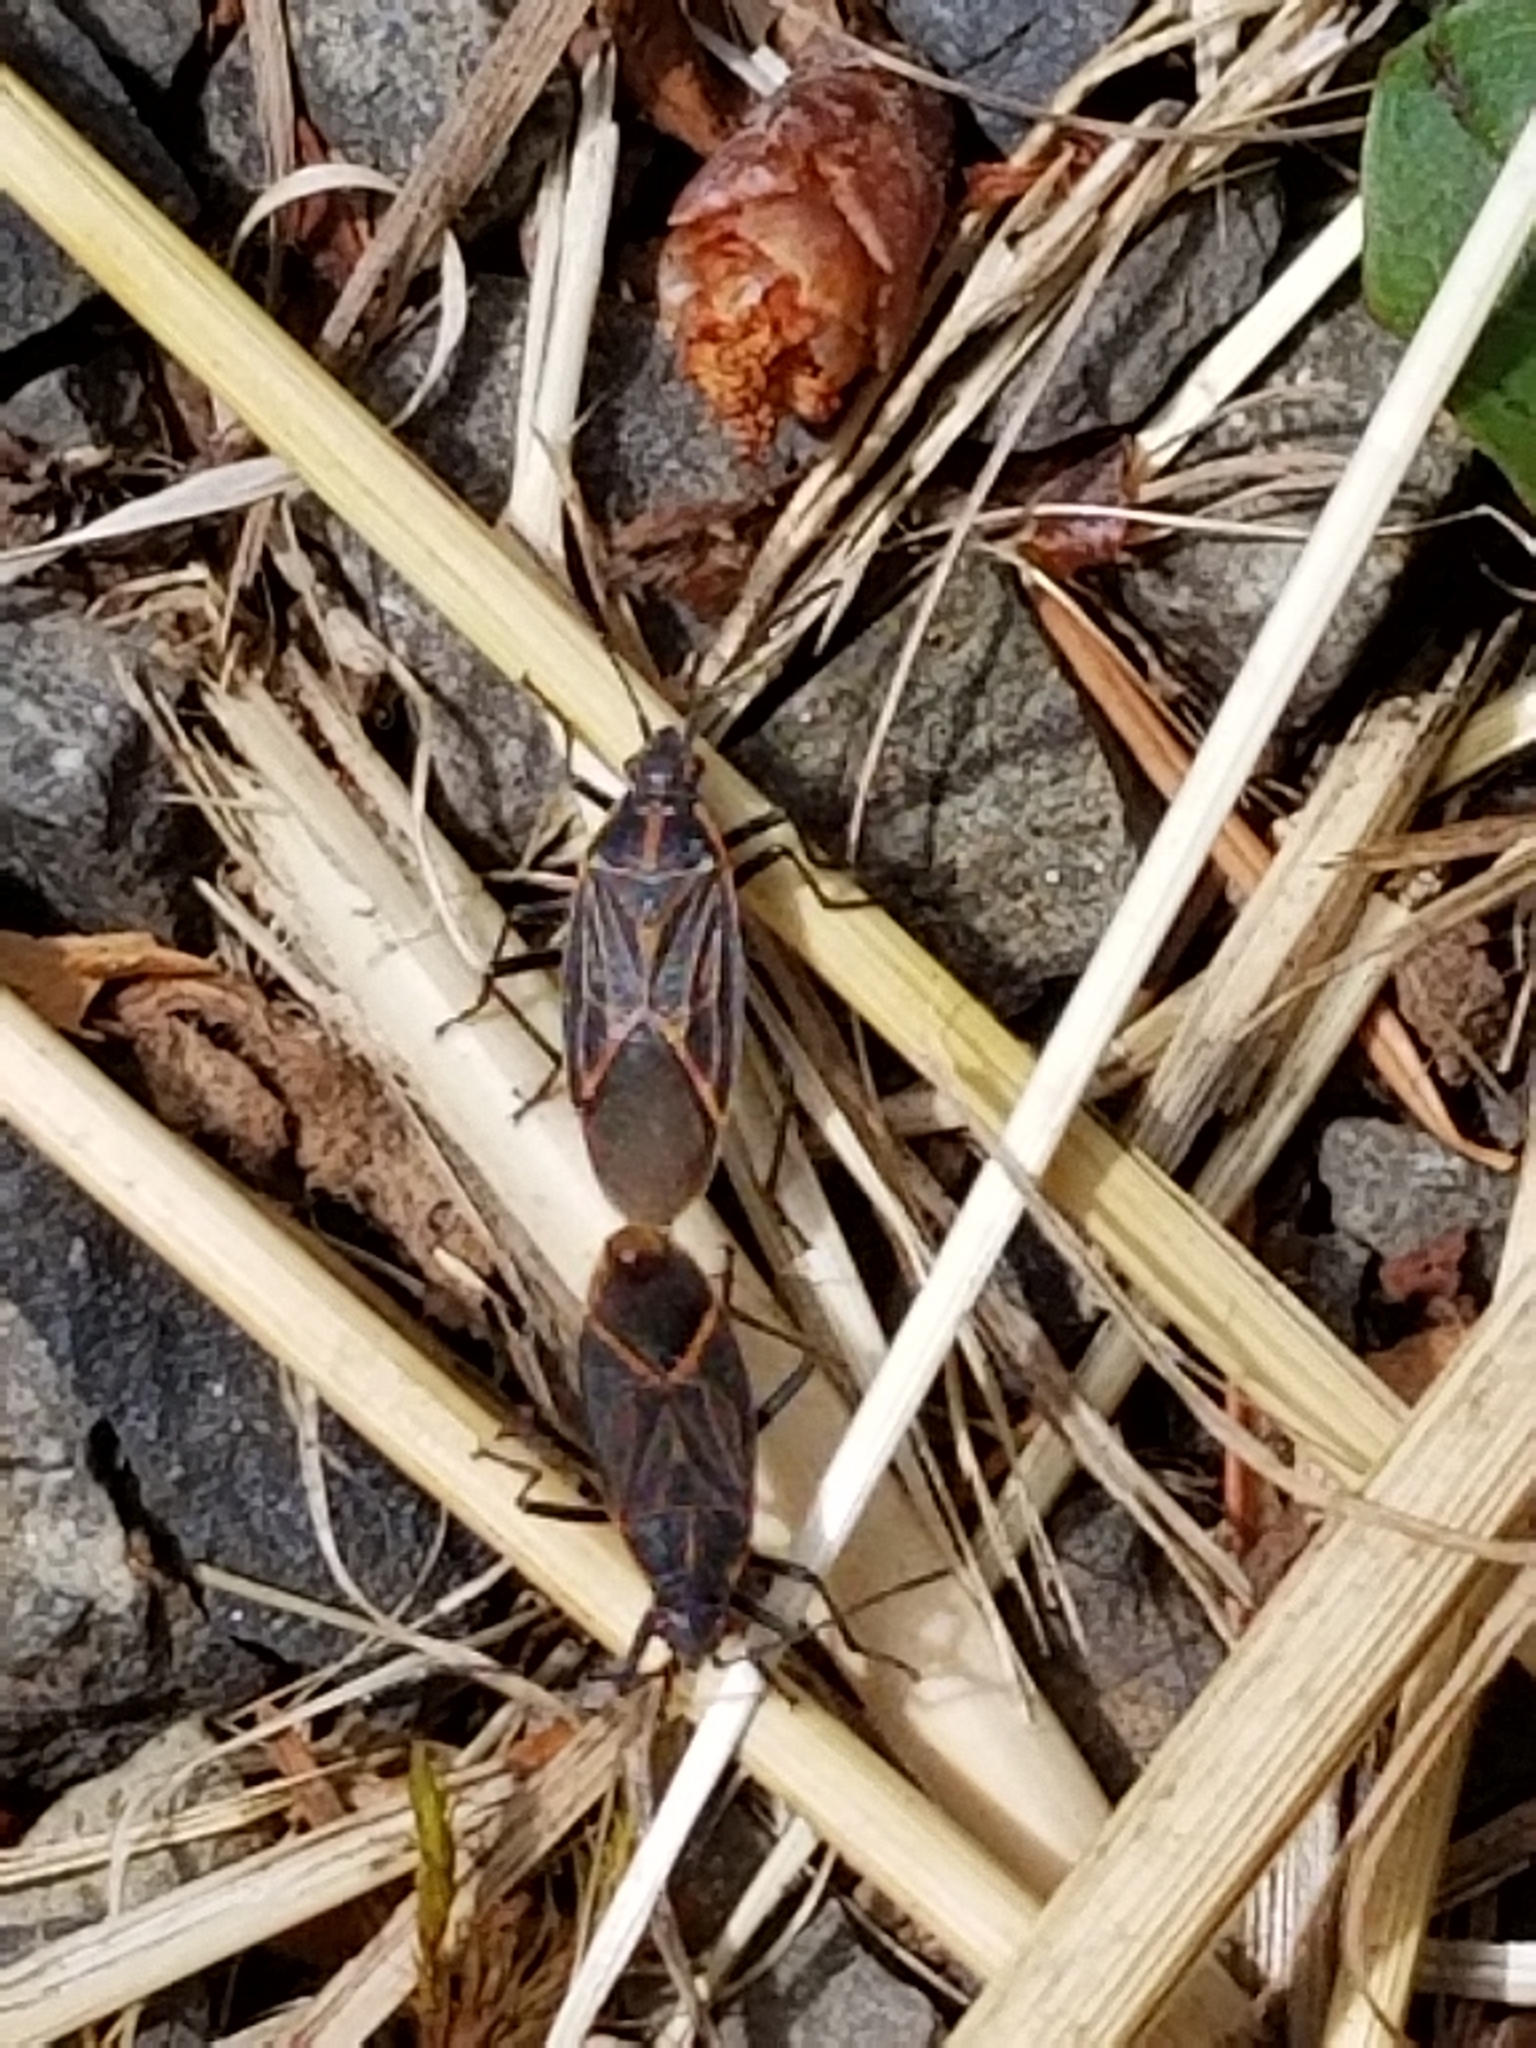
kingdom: Animalia
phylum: Arthropoda
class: Insecta
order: Hemiptera
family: Rhopalidae
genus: Boisea
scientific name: Boisea rubrolineata
